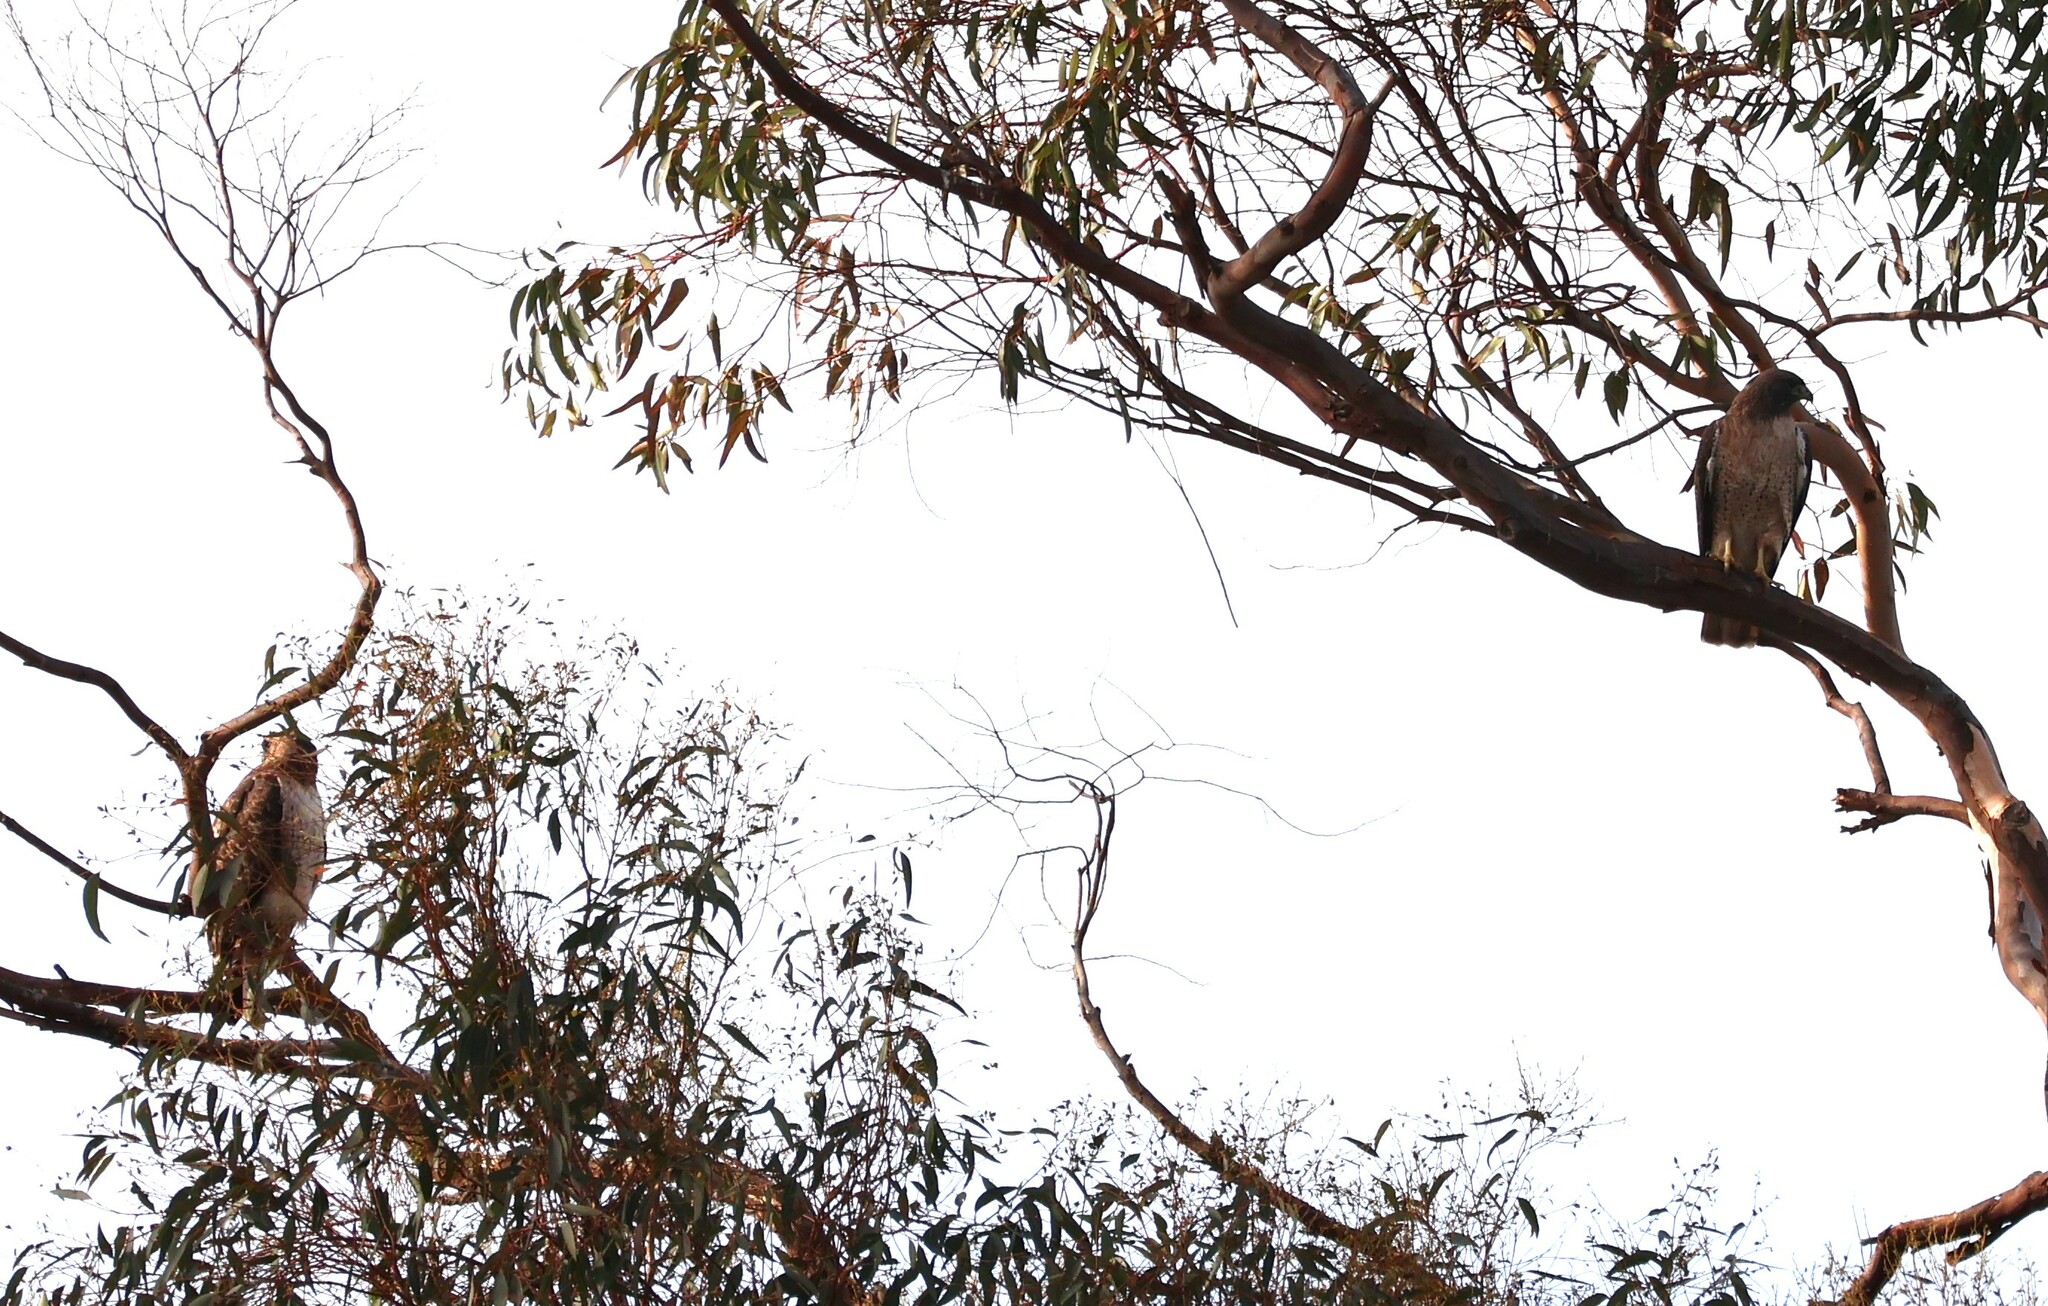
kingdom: Animalia
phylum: Chordata
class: Aves
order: Accipitriformes
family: Accipitridae
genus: Buteo
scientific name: Buteo jamaicensis
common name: Red-tailed hawk
